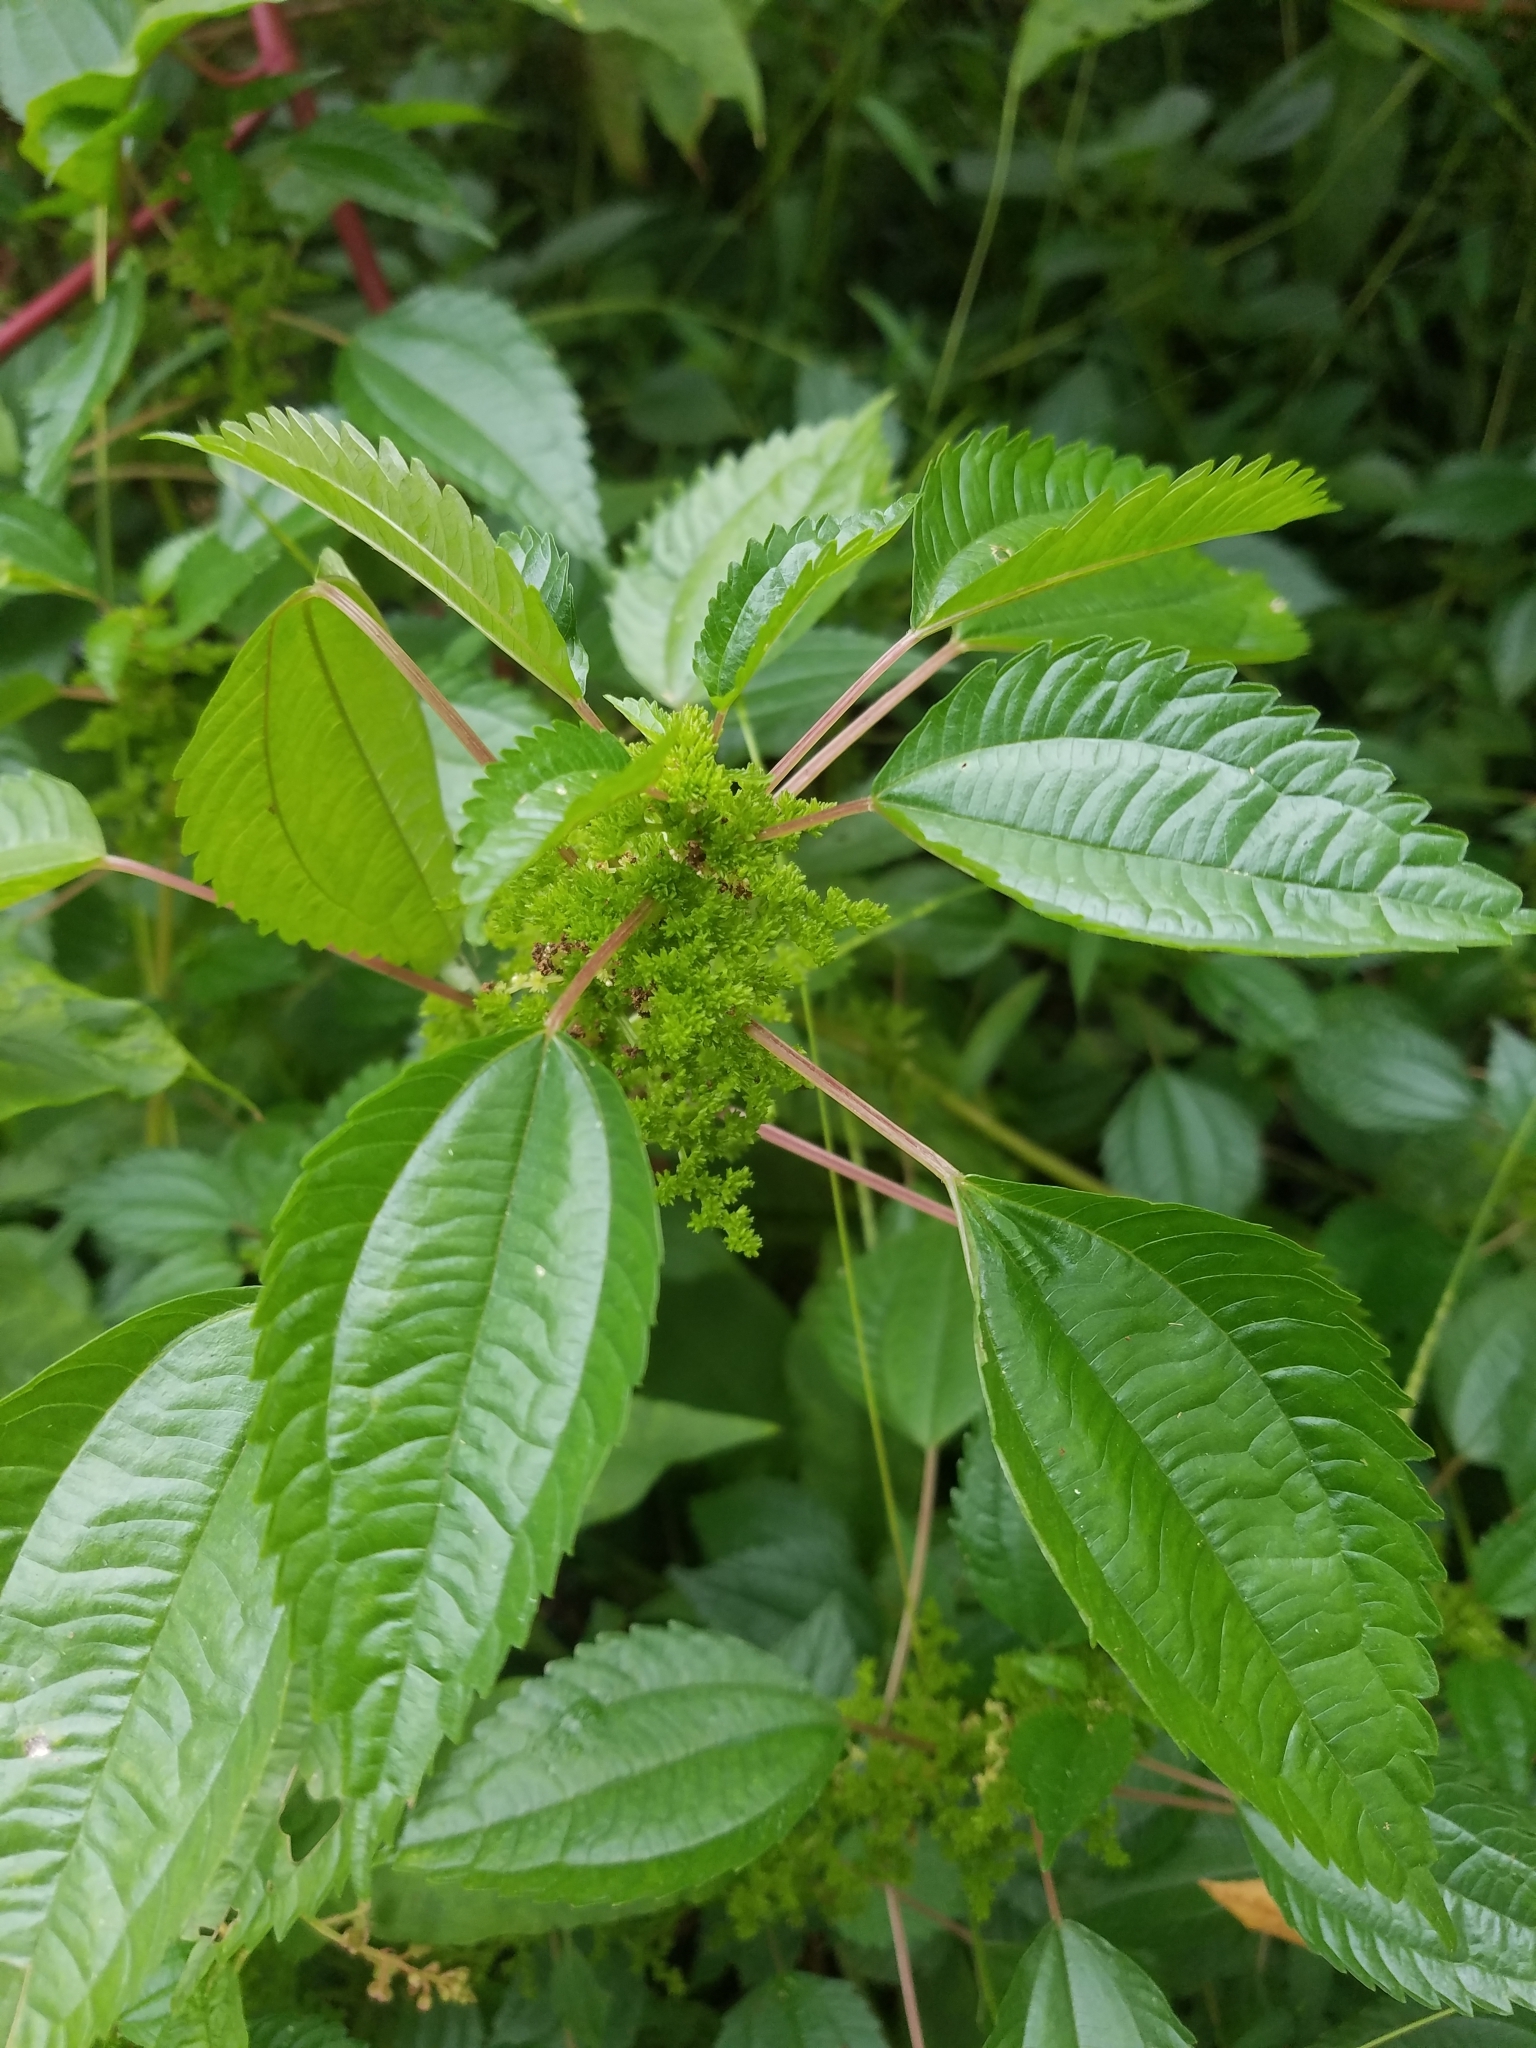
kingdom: Plantae
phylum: Tracheophyta
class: Magnoliopsida
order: Rosales
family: Urticaceae
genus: Pilea
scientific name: Pilea pumila
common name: Clearweed
